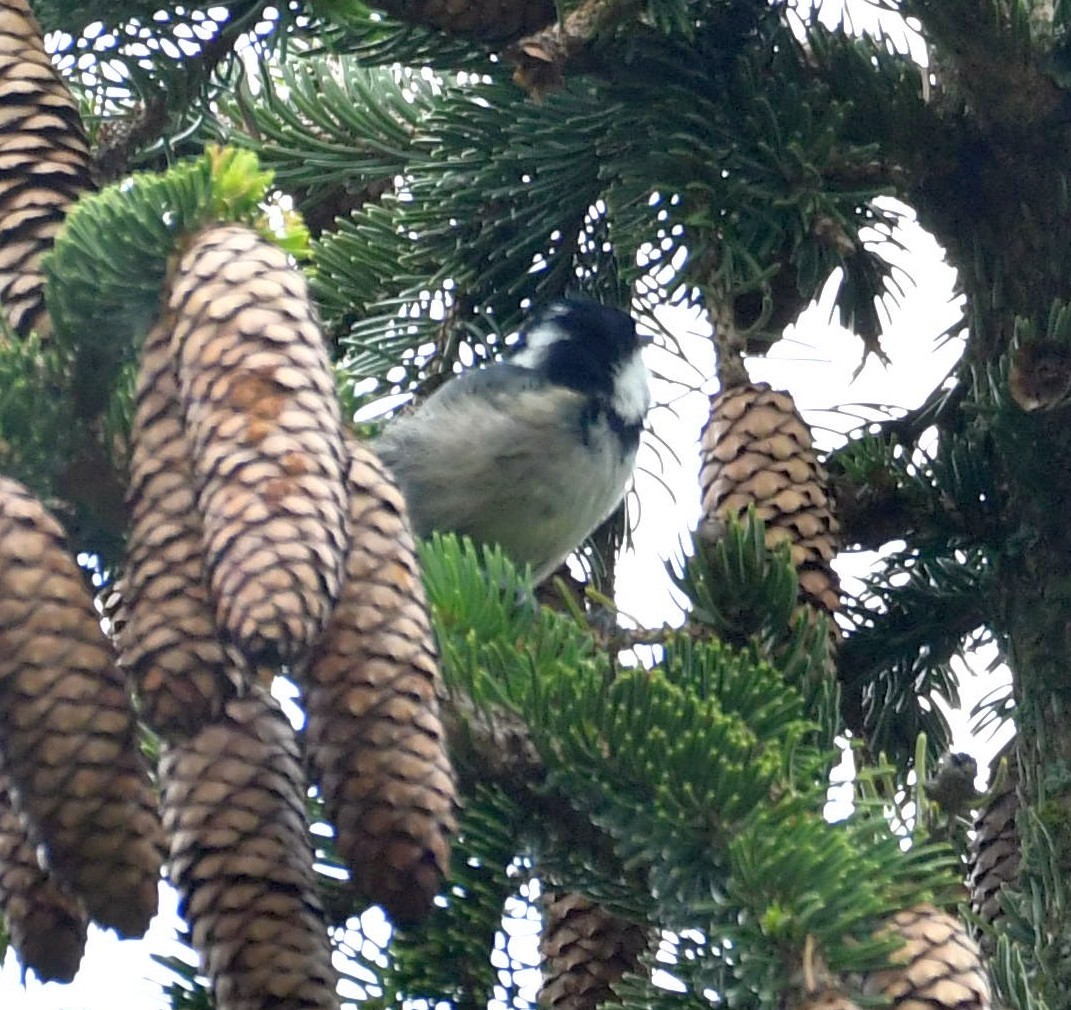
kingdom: Animalia
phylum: Chordata
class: Aves
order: Passeriformes
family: Paridae
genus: Periparus
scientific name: Periparus ater
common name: Coal tit
